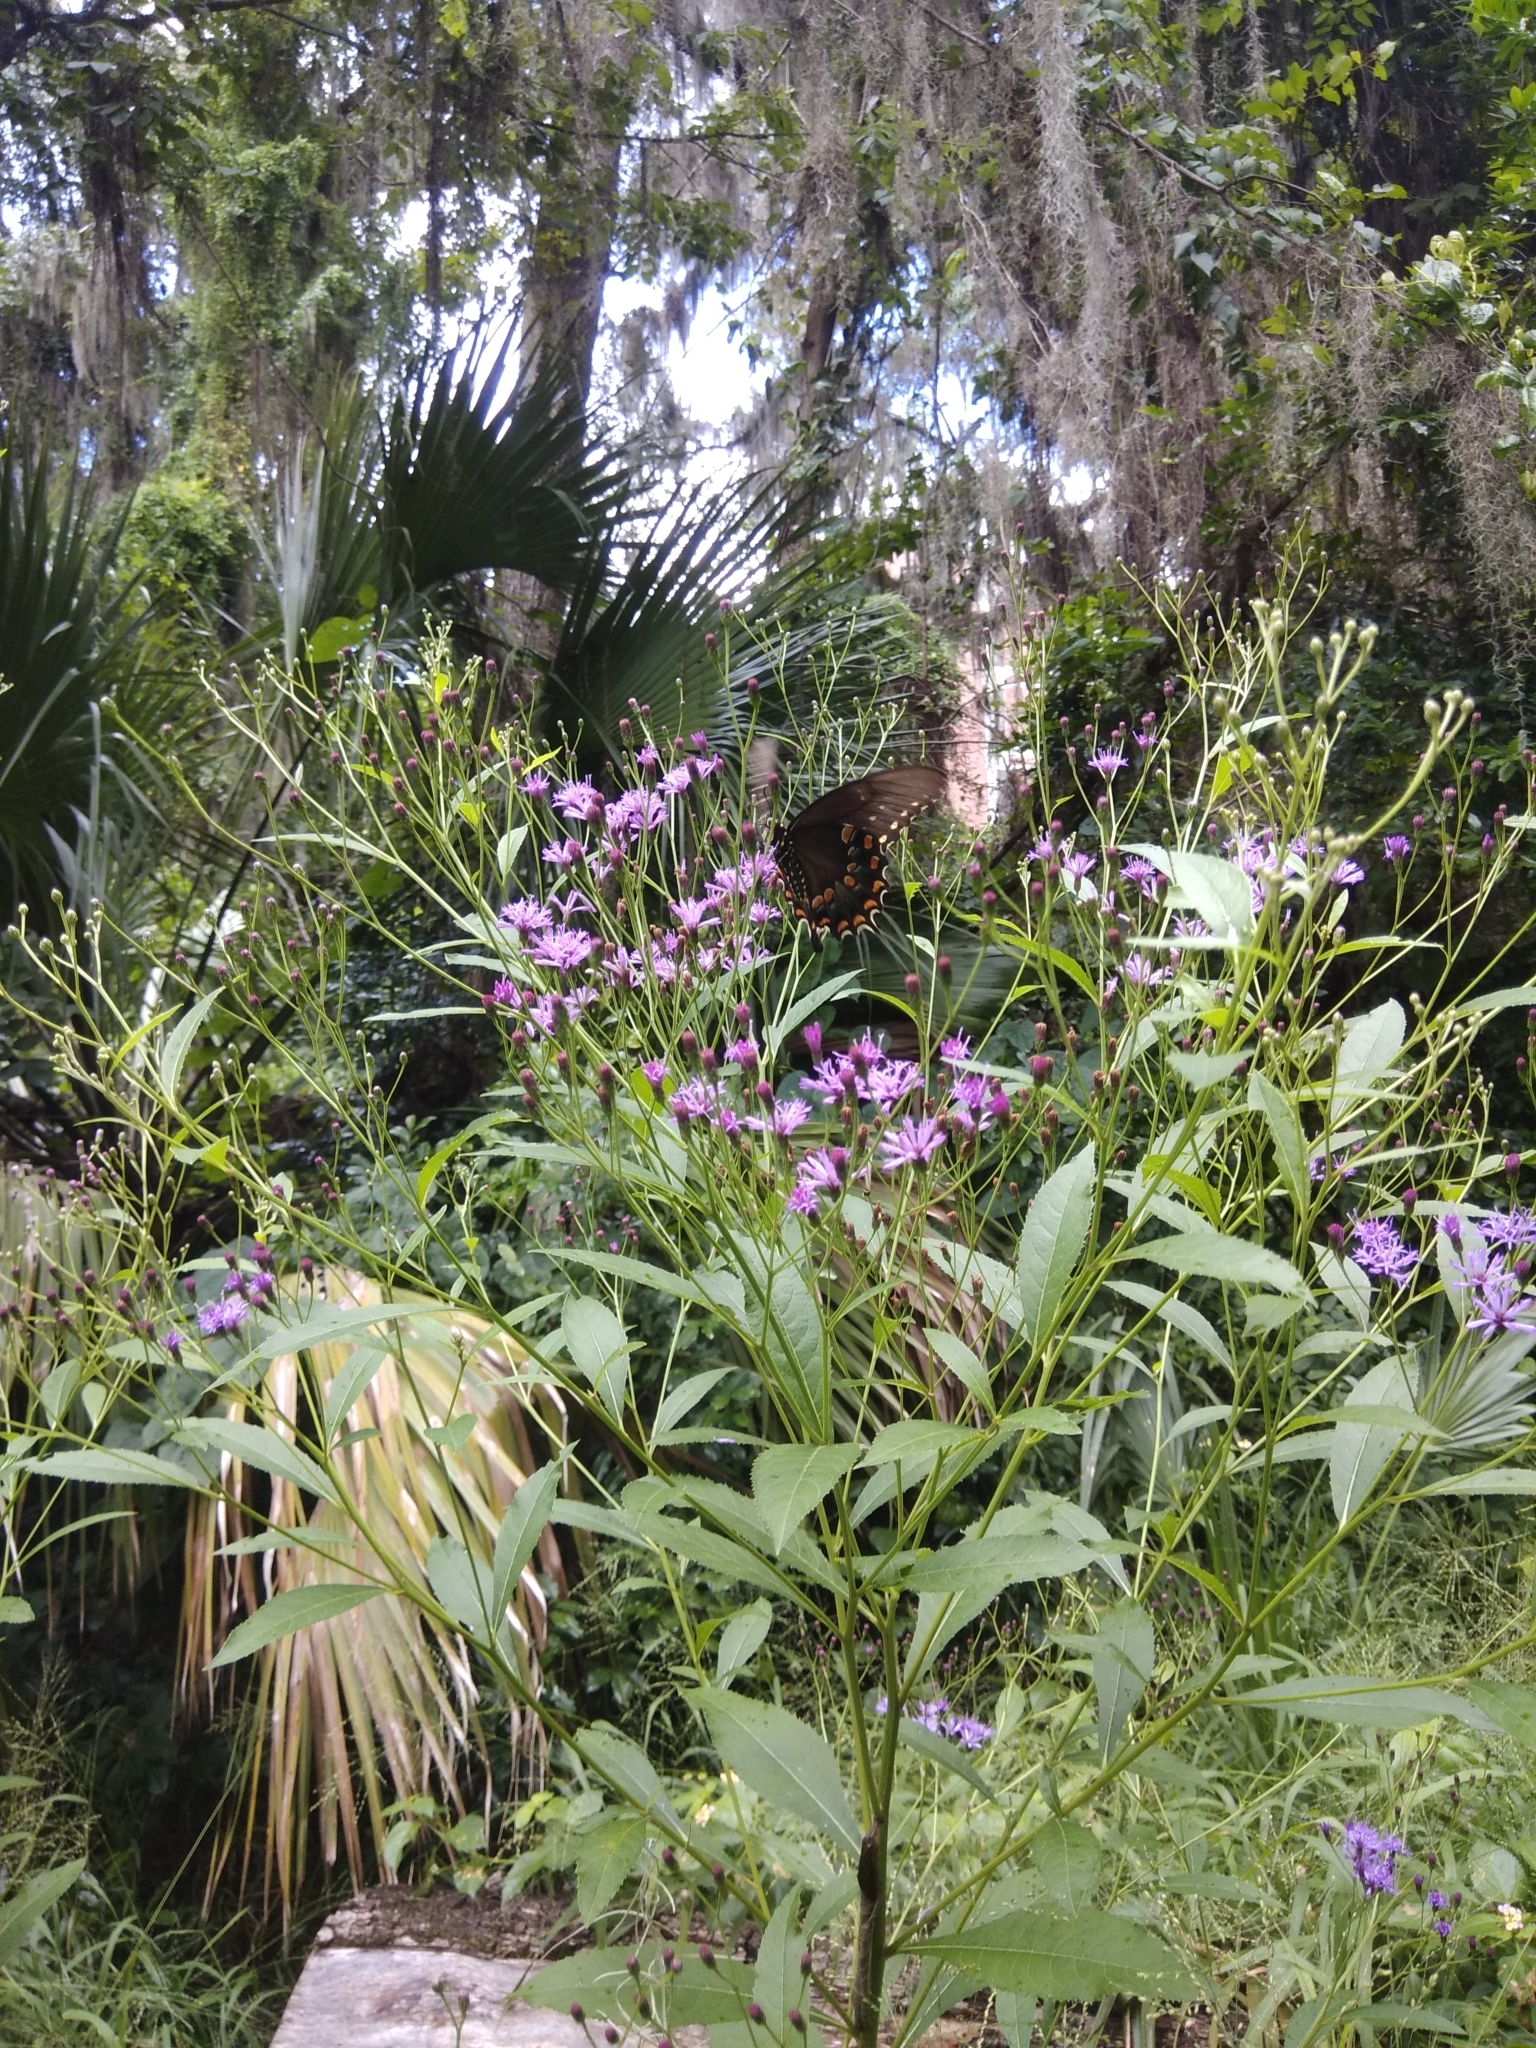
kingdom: Plantae
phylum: Tracheophyta
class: Magnoliopsida
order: Asterales
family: Asteraceae
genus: Vernonia
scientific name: Vernonia gigantea
